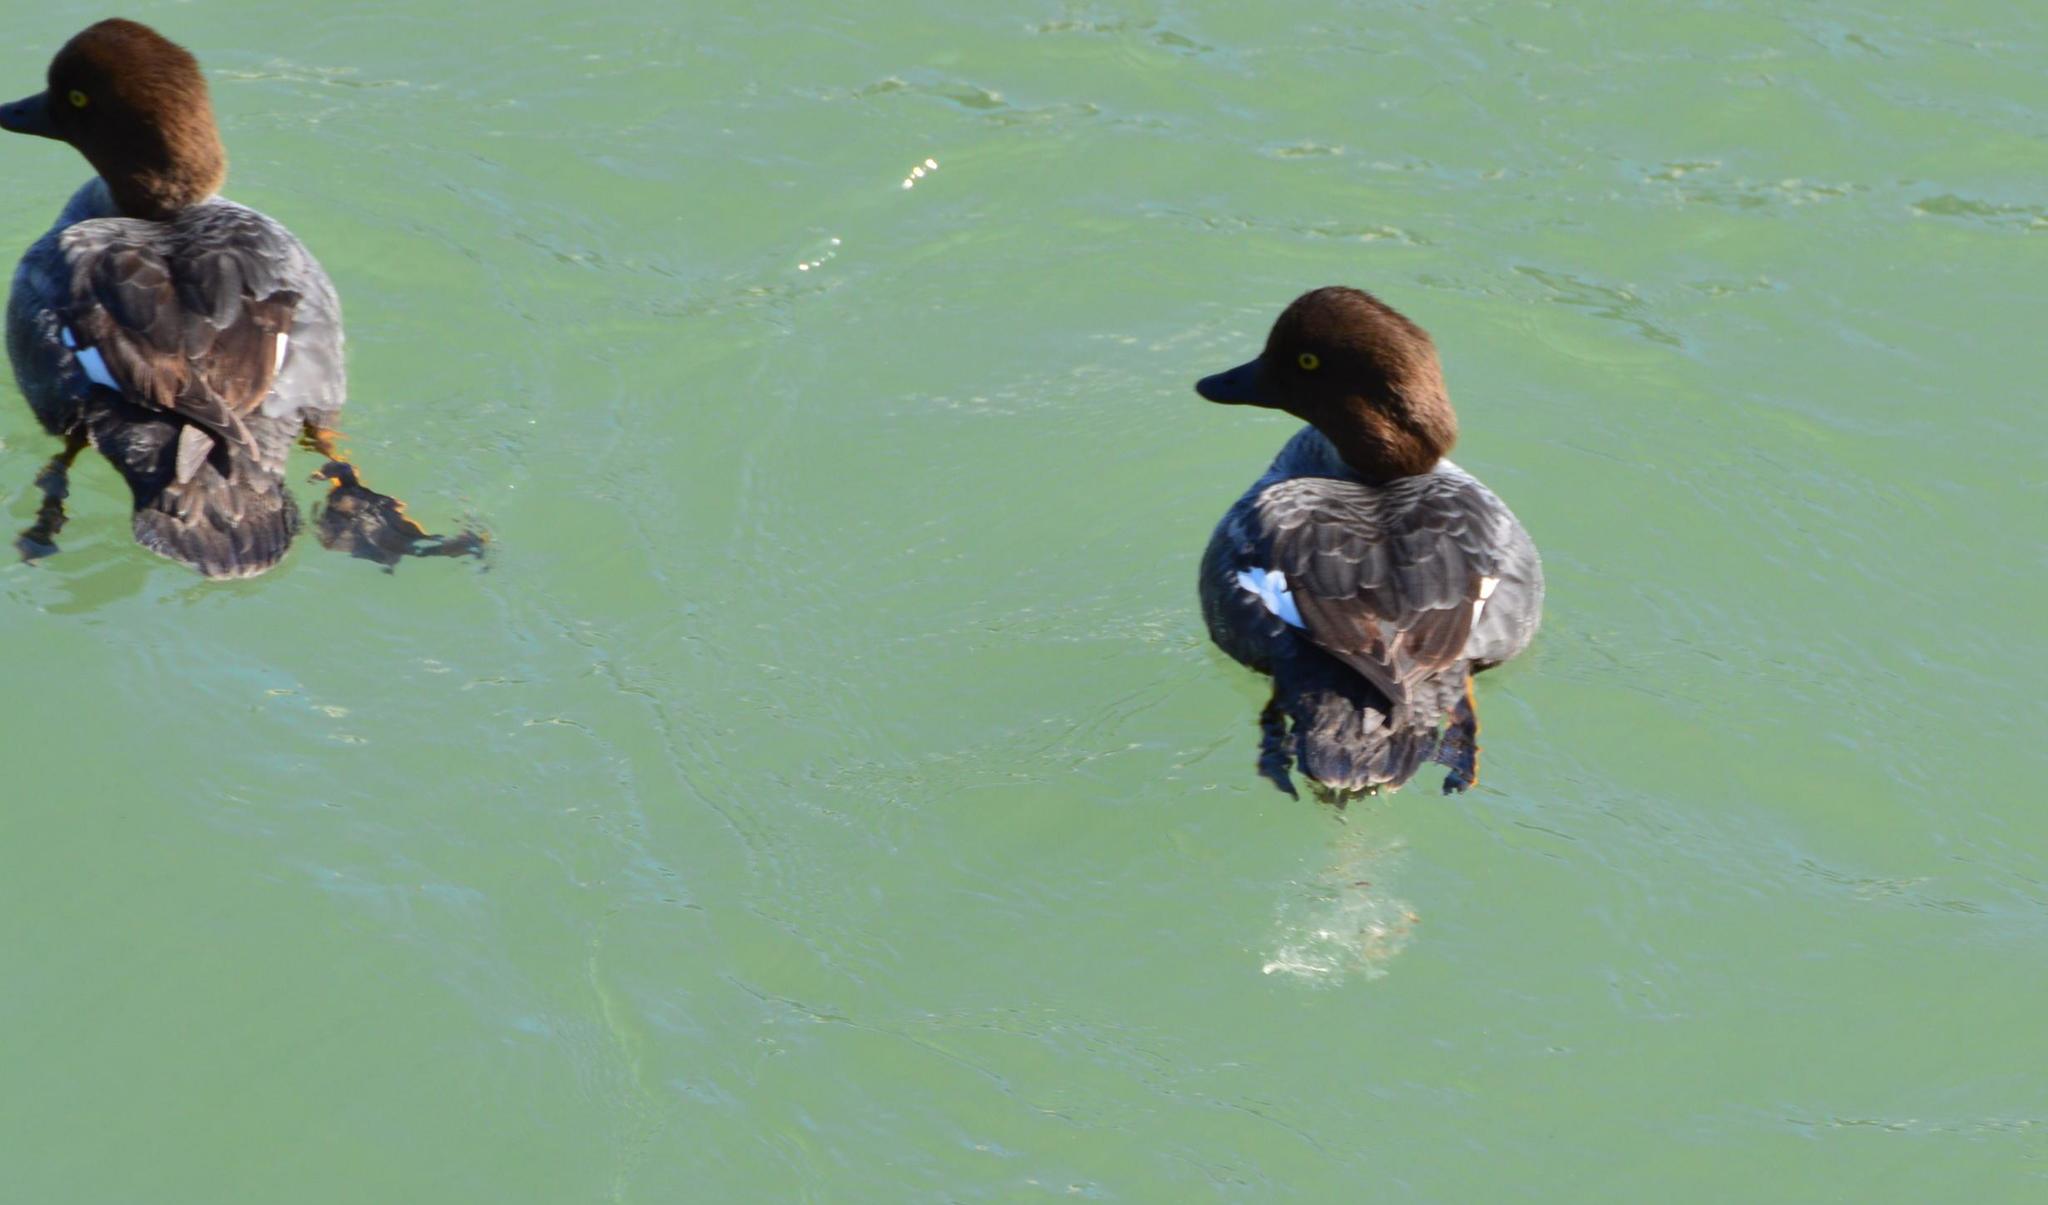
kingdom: Animalia
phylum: Chordata
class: Aves
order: Anseriformes
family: Anatidae
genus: Bucephala
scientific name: Bucephala clangula
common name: Common goldeneye
